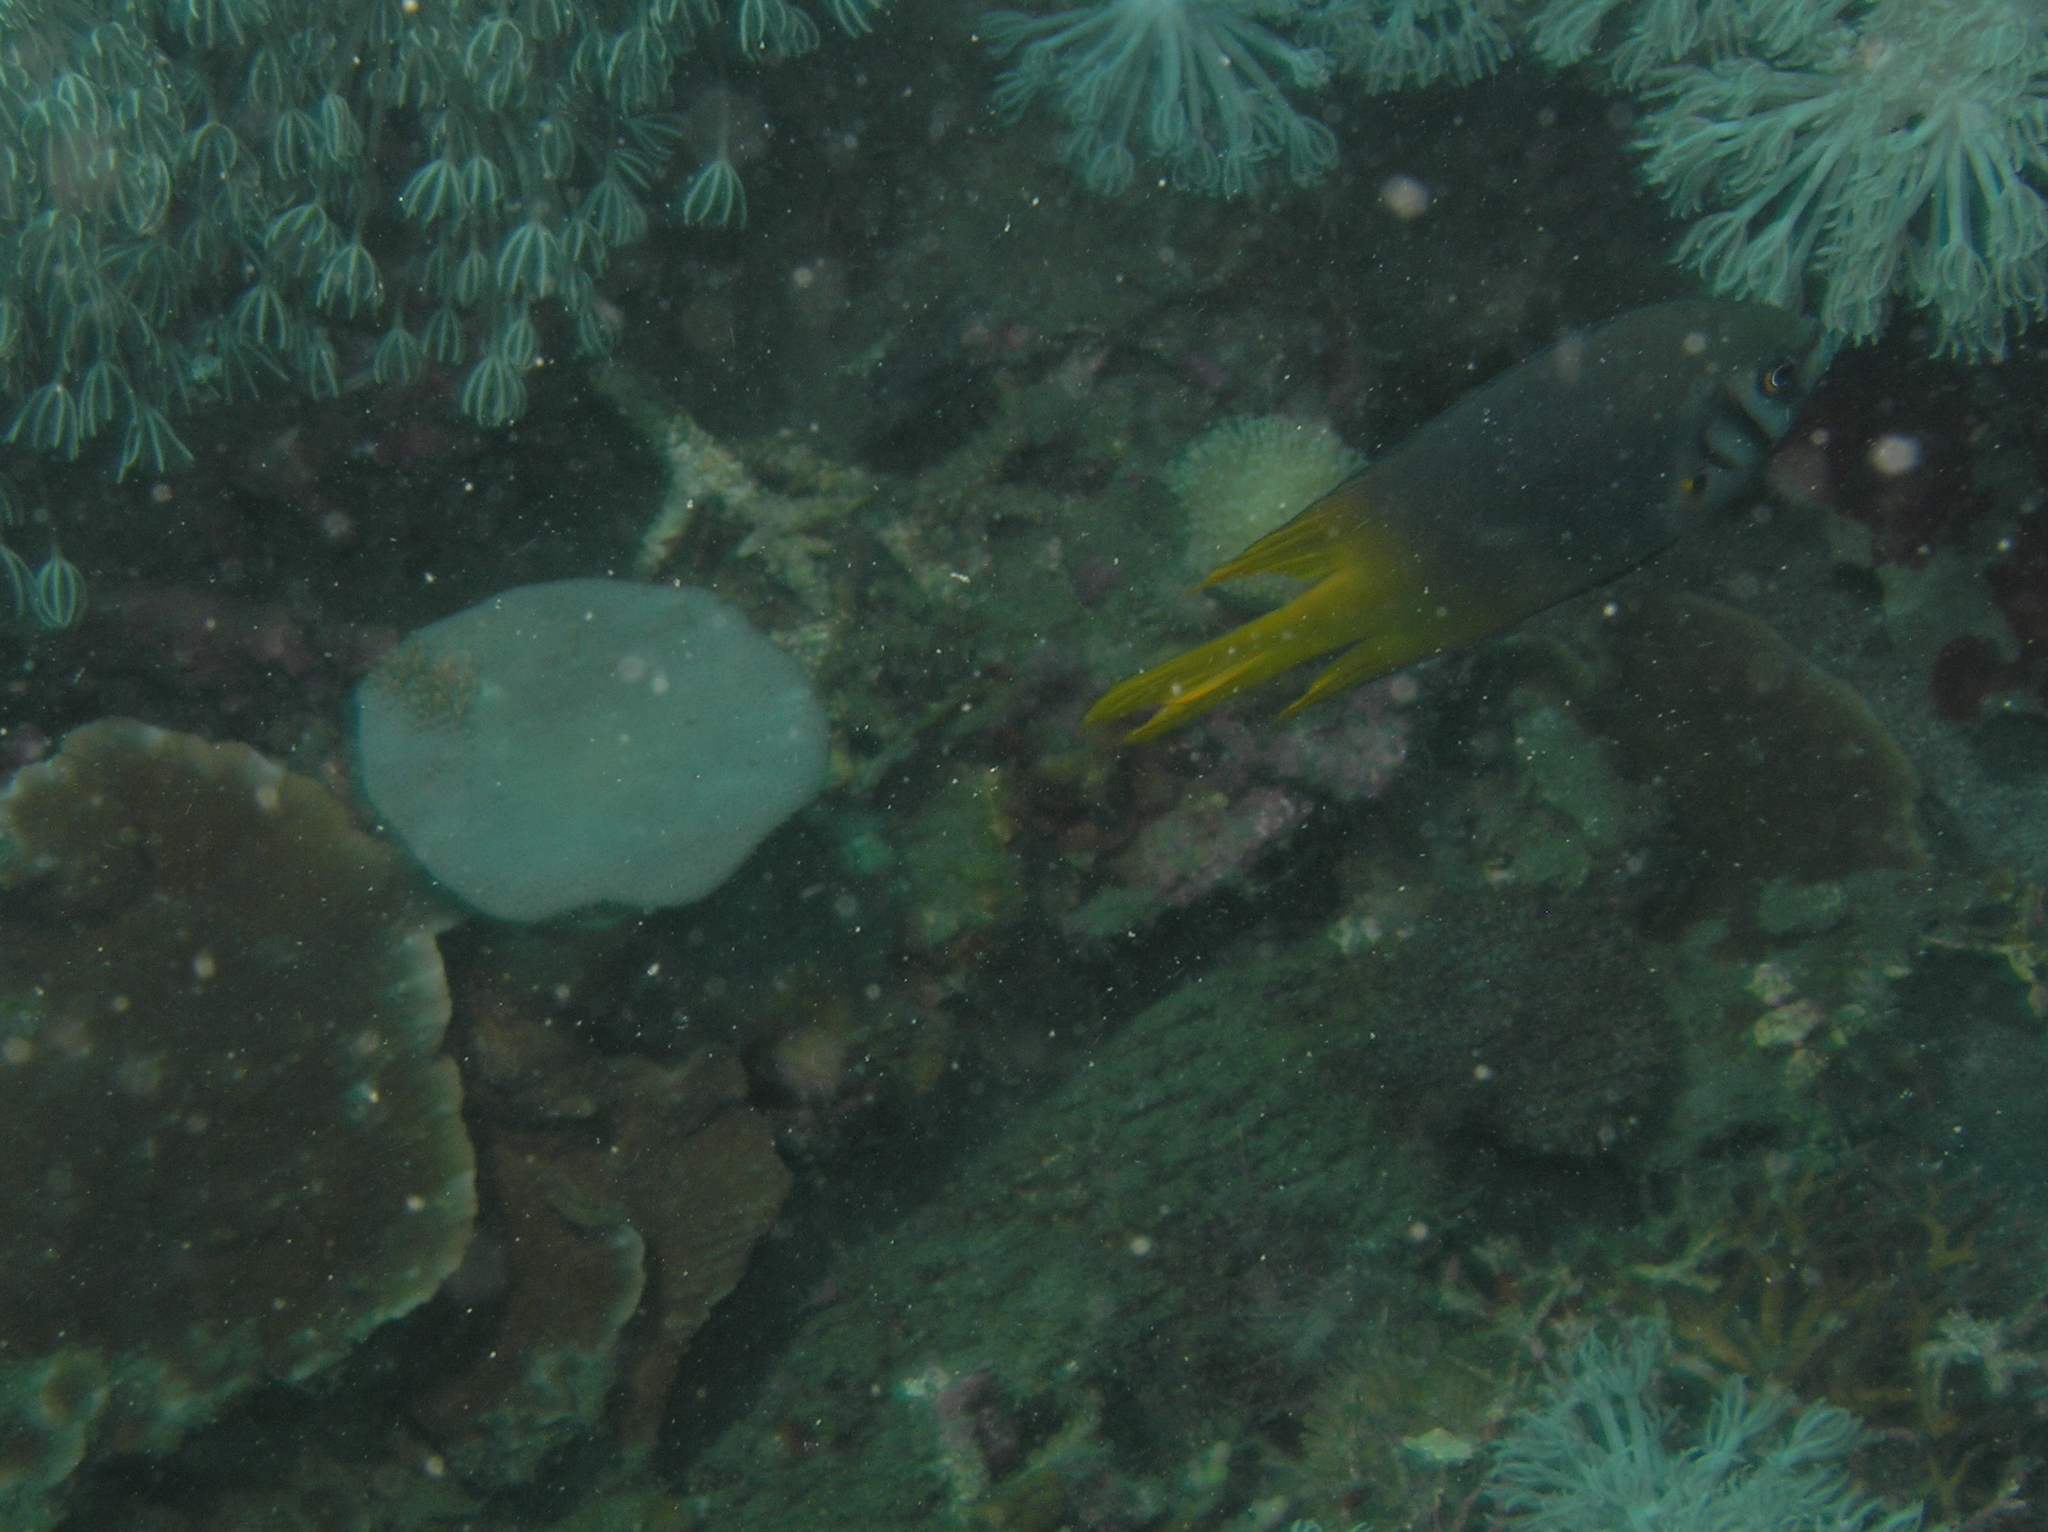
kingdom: Animalia
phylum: Chordata
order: Perciformes
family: Pomacentridae
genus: Neoglyphidodon
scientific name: Neoglyphidodon nigroris
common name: Behn's damsel
